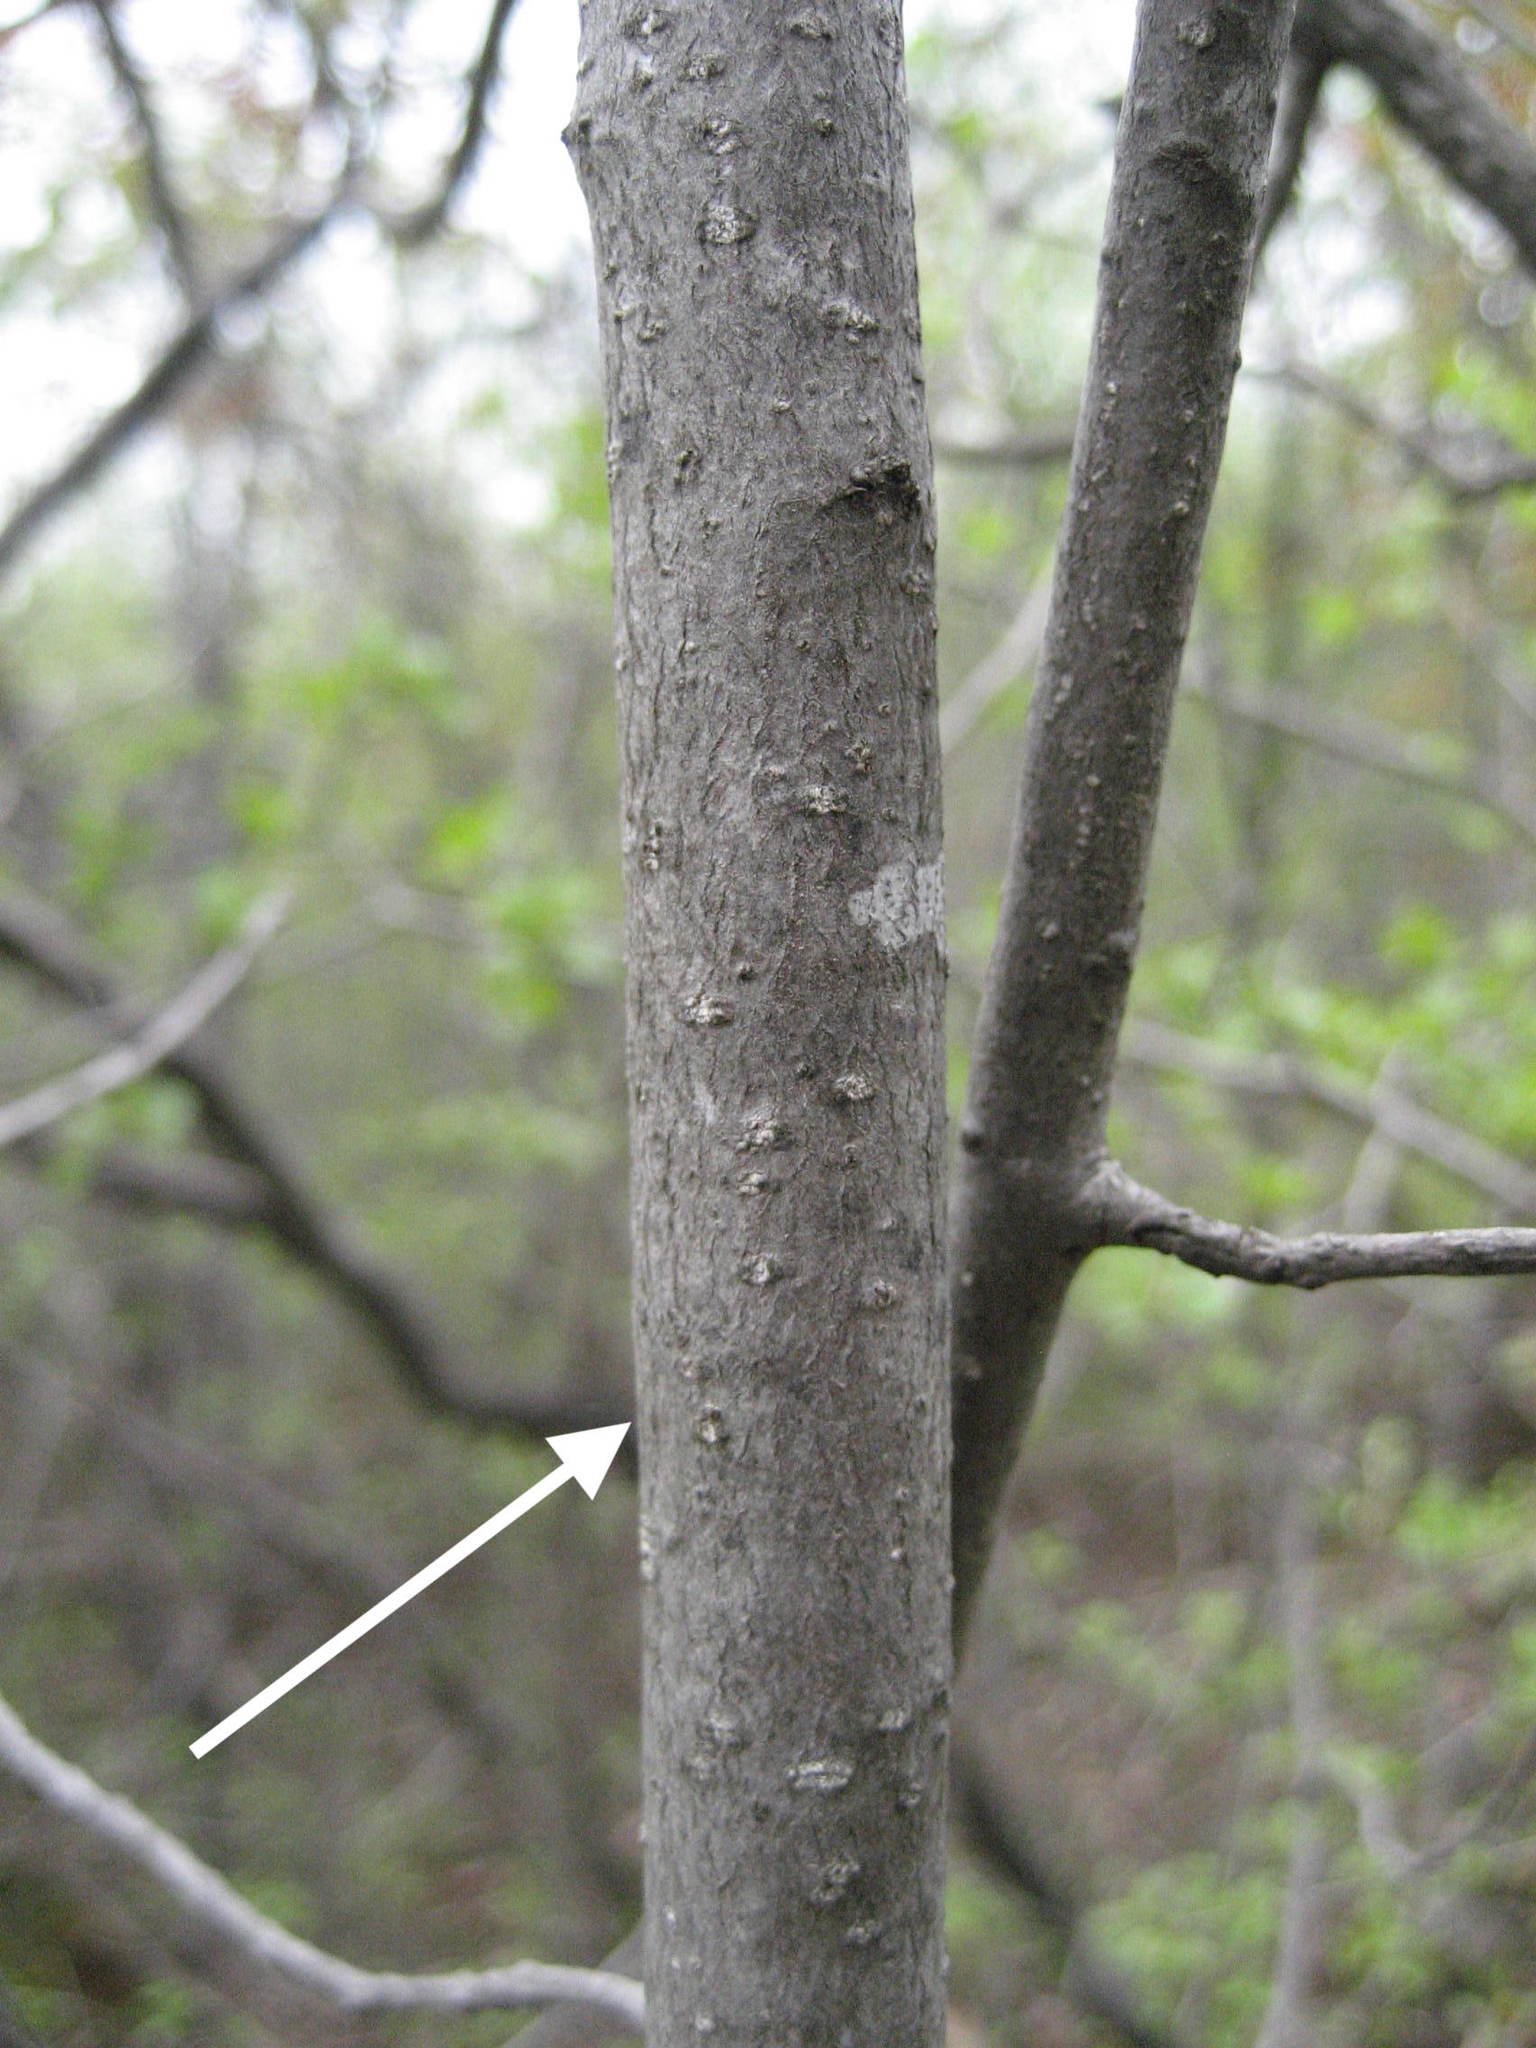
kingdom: Plantae
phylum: Tracheophyta
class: Magnoliopsida
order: Rosales
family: Rhamnaceae
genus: Frangula
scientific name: Frangula alnus
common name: Alder buckthorn
